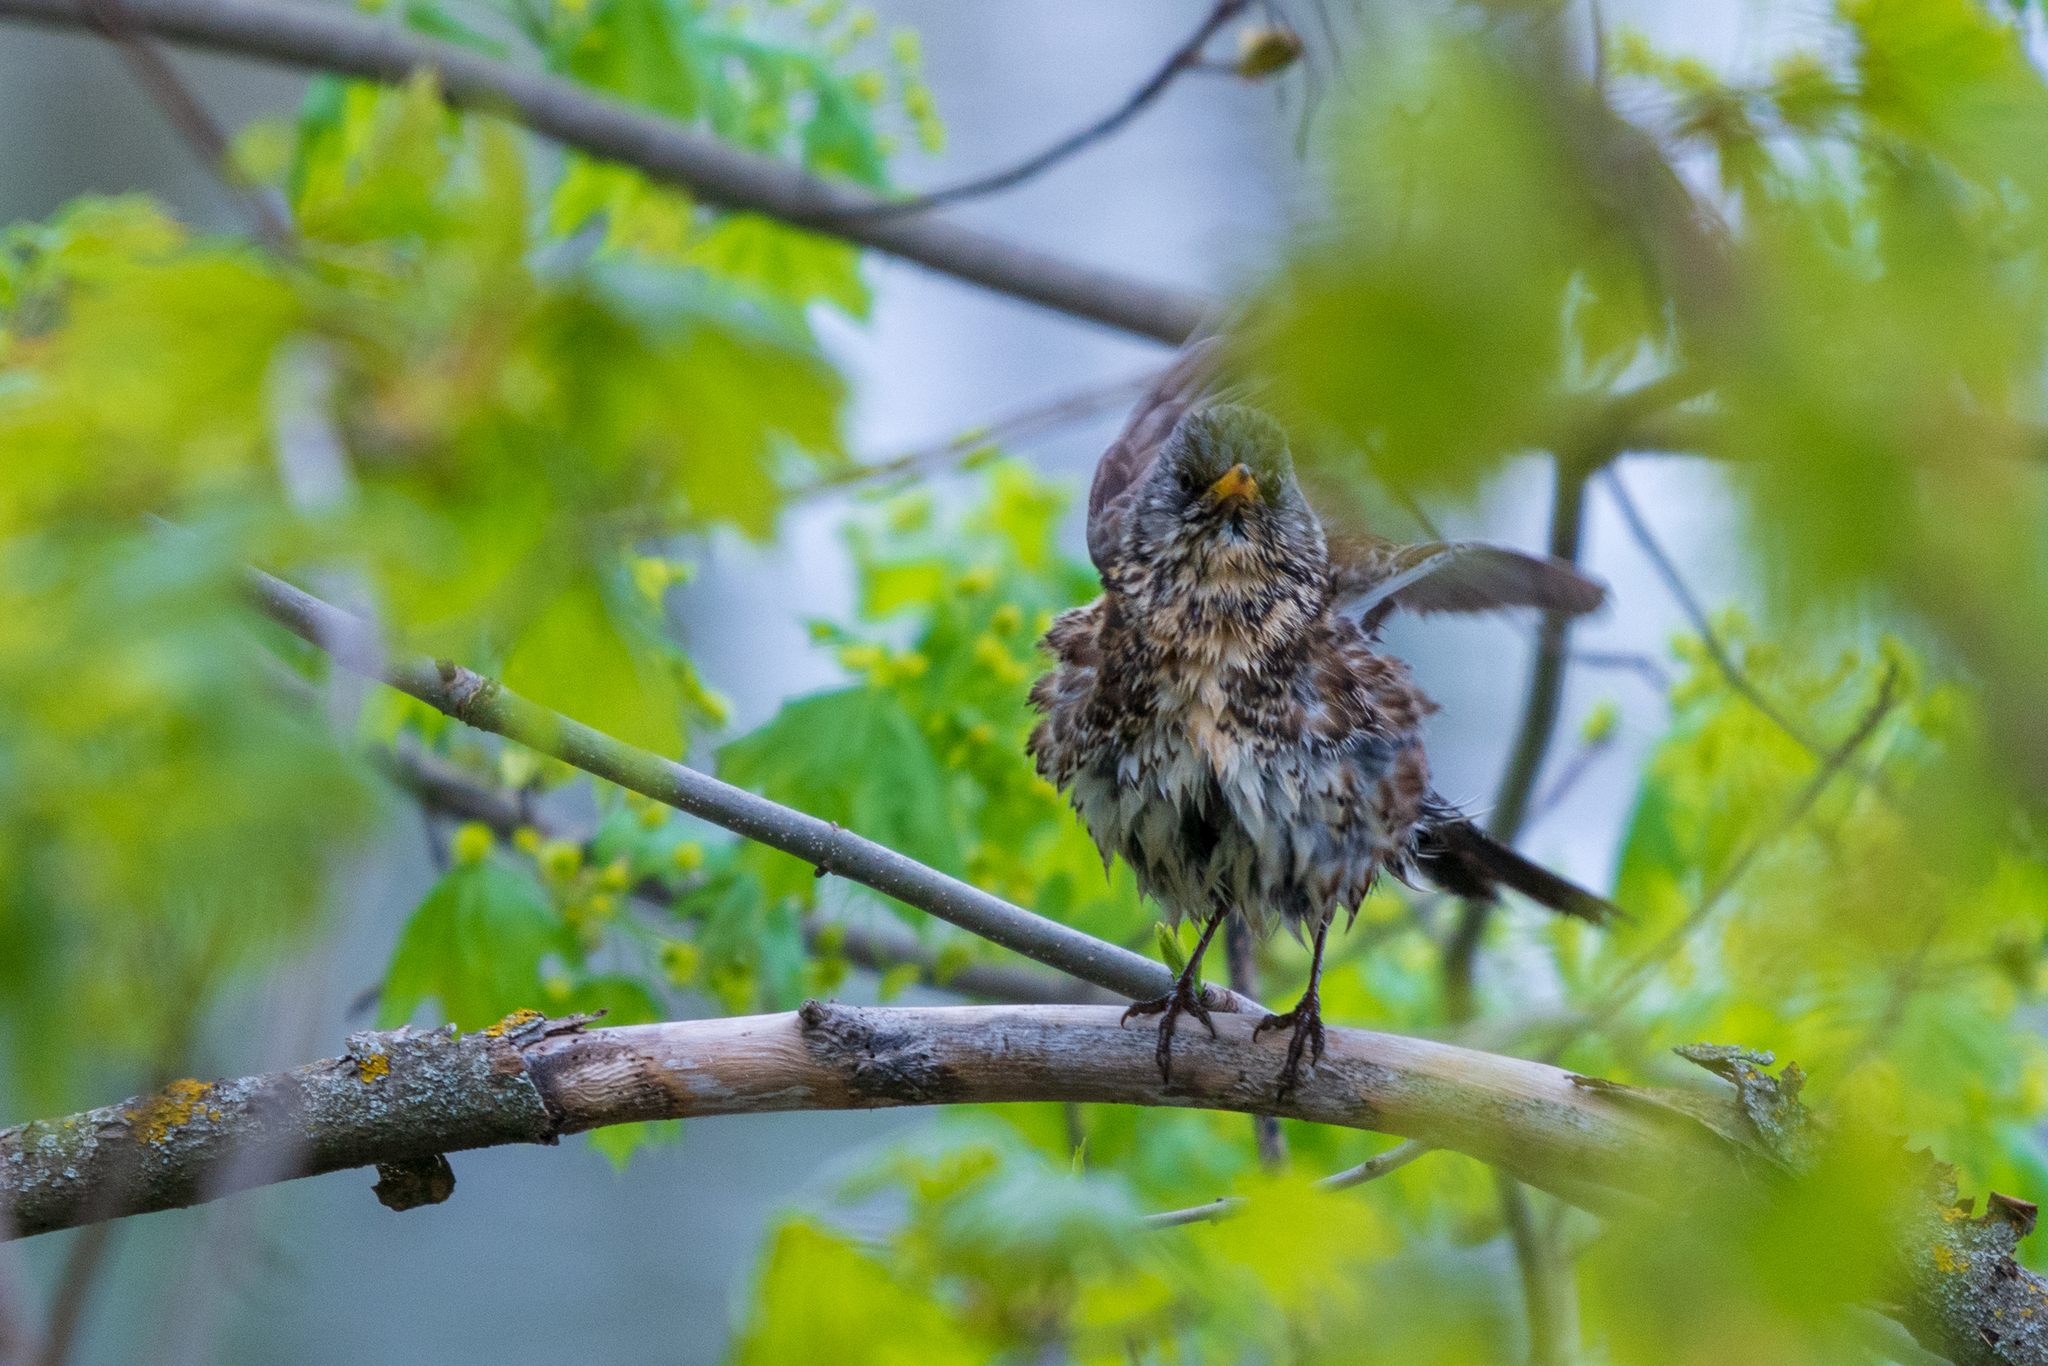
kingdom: Animalia
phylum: Chordata
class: Aves
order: Passeriformes
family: Turdidae
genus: Turdus
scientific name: Turdus pilaris
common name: Fieldfare
